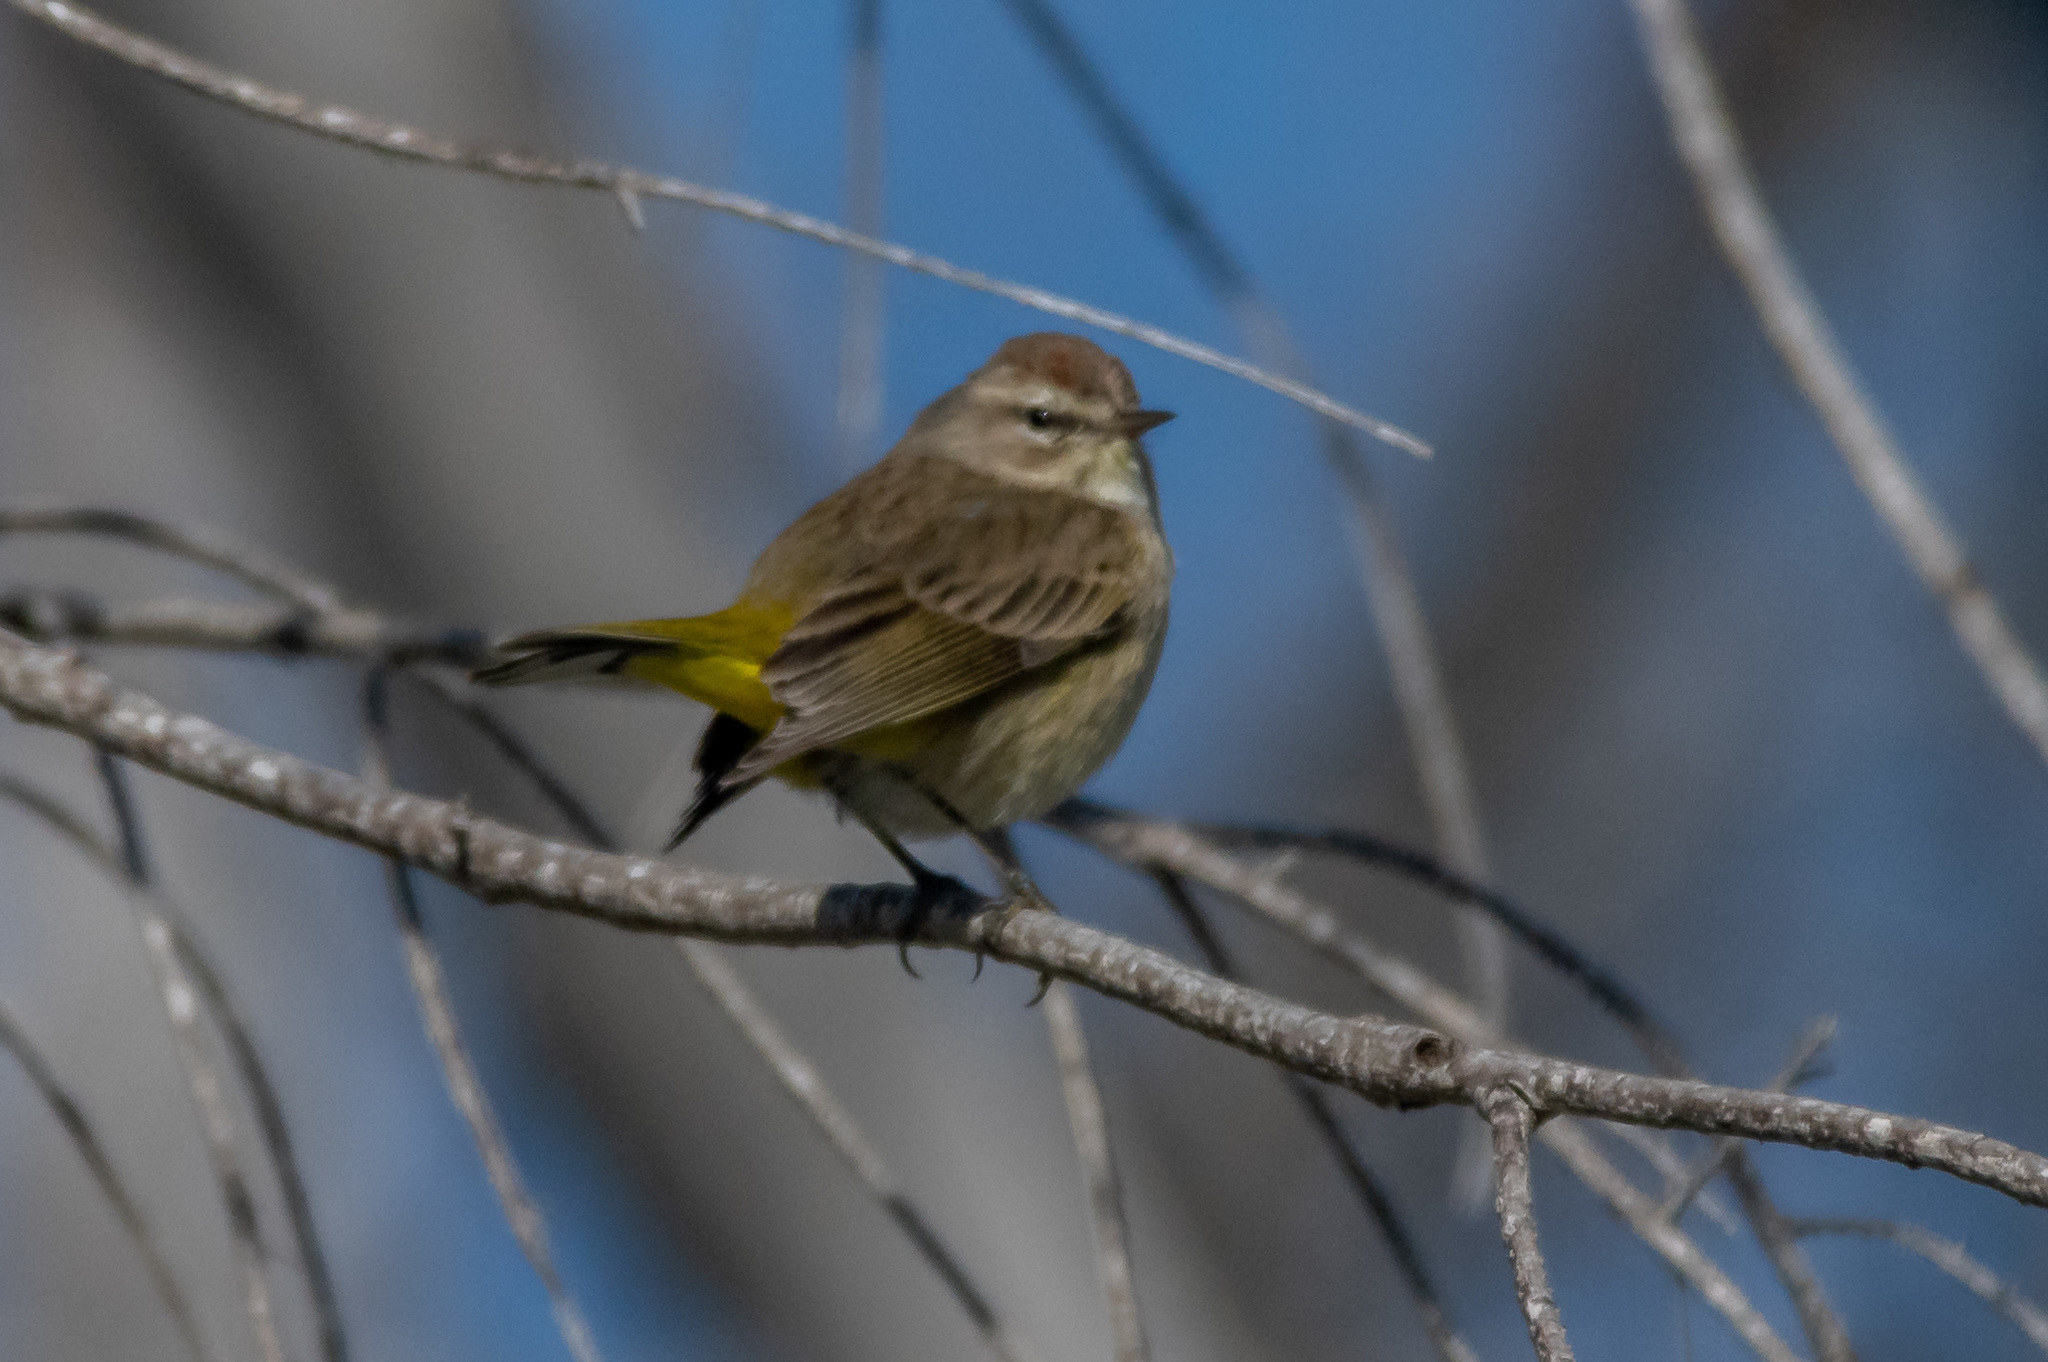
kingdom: Animalia
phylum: Chordata
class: Aves
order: Passeriformes
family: Parulidae
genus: Setophaga
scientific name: Setophaga palmarum
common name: Palm warbler
